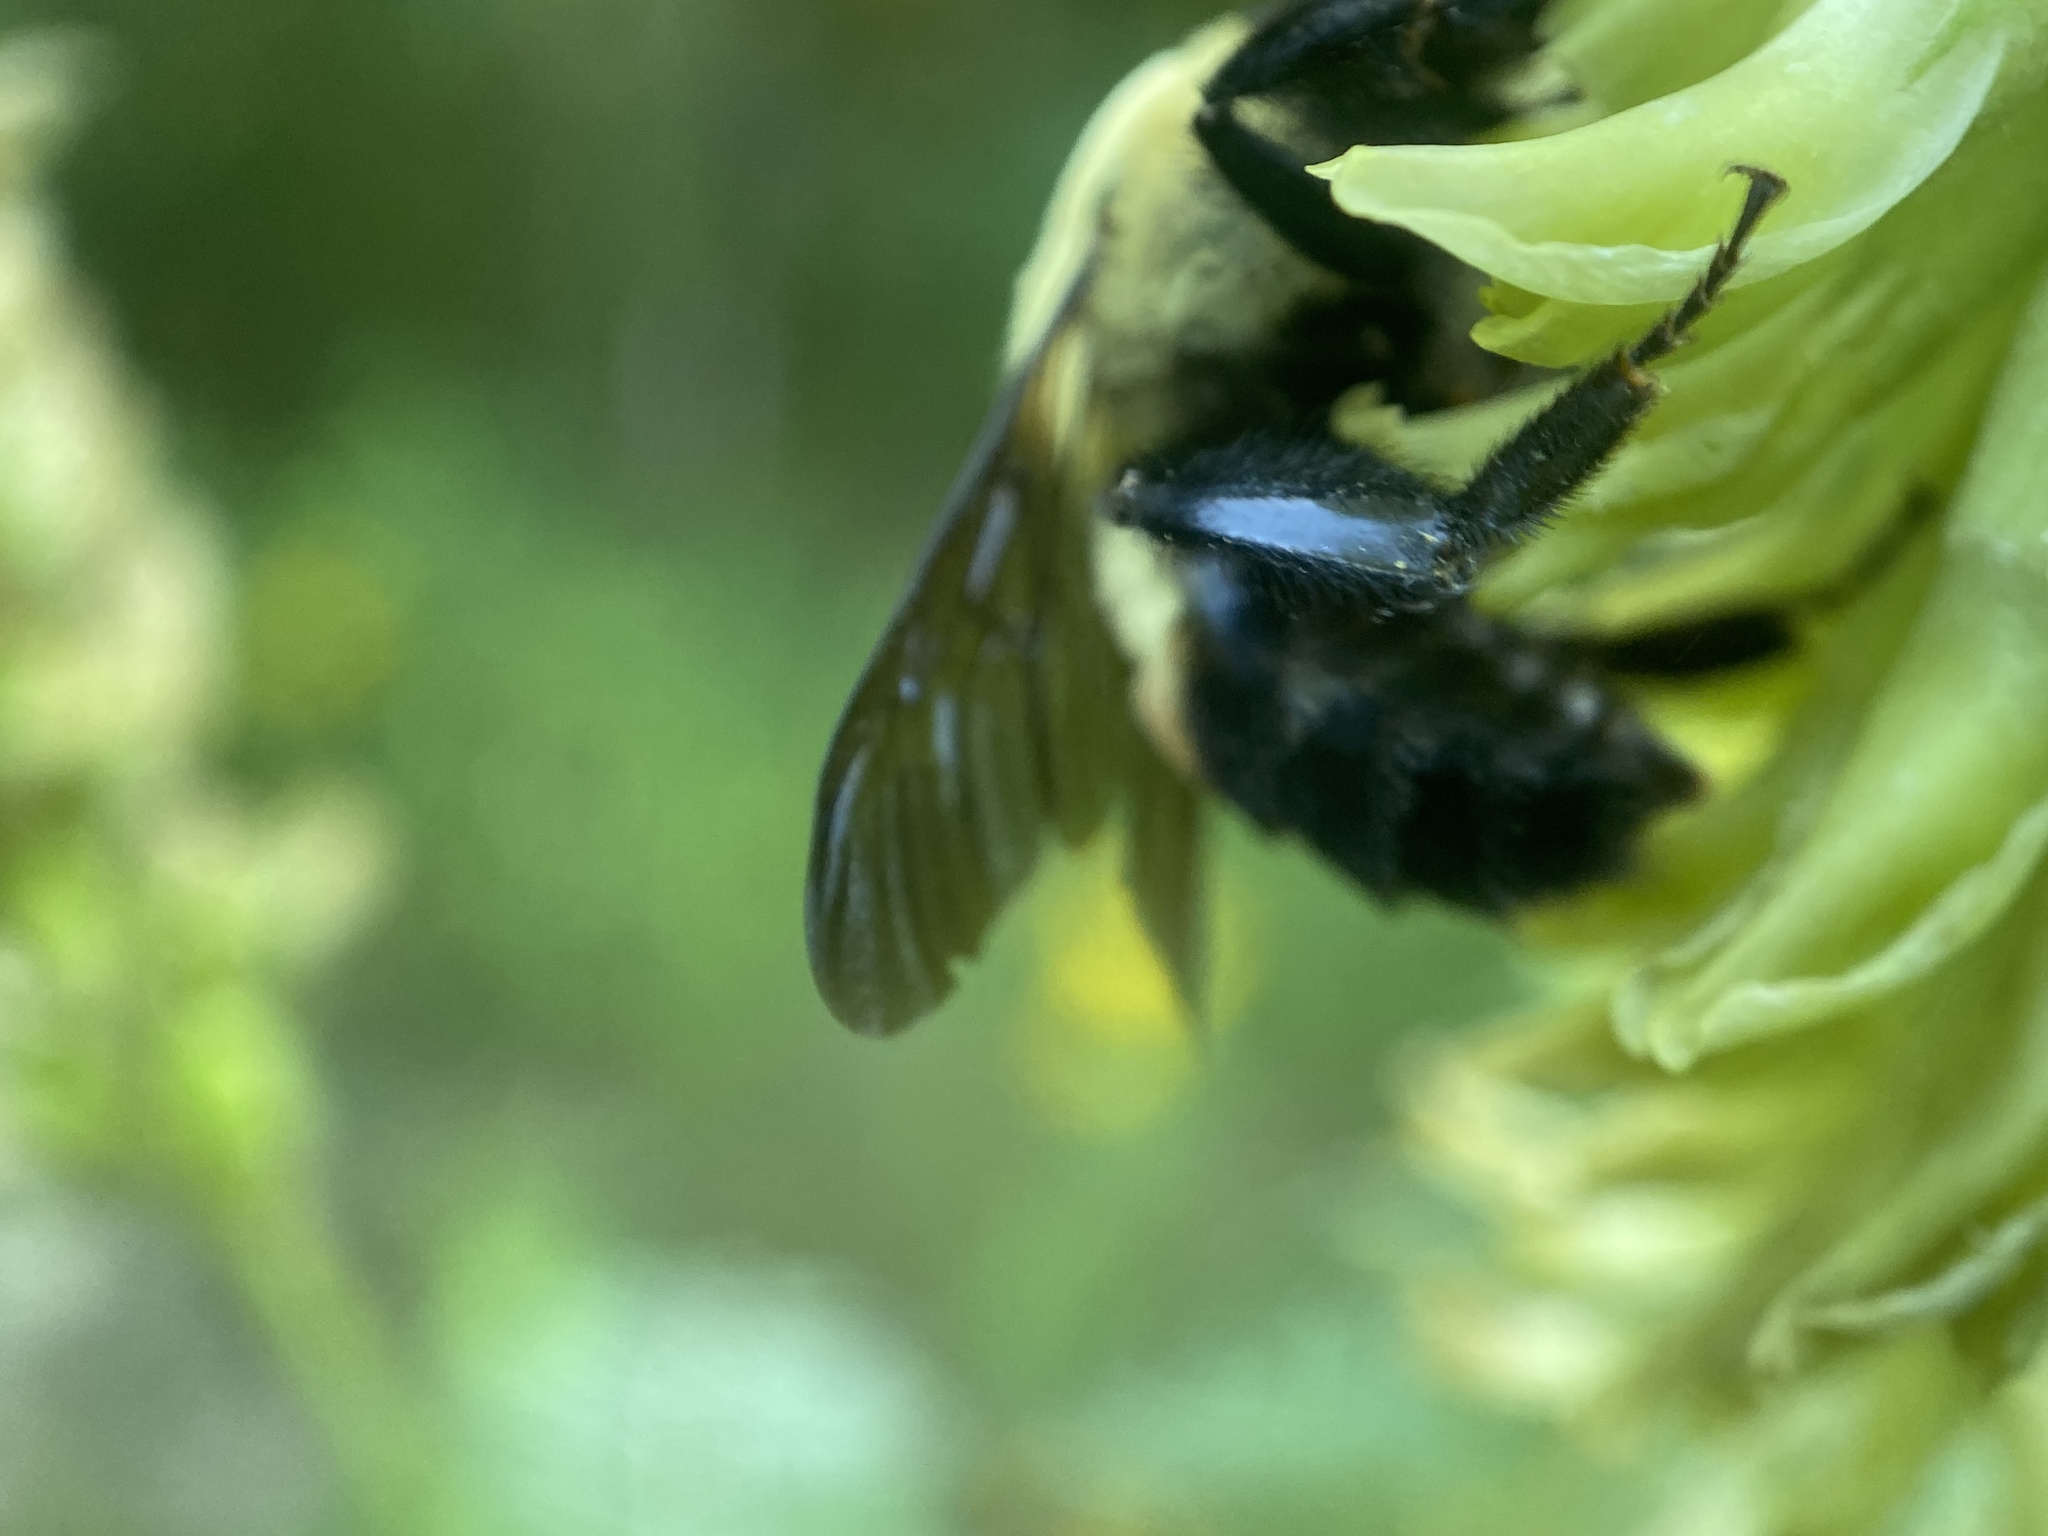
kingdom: Animalia
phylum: Arthropoda
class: Insecta
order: Hymenoptera
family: Apidae
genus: Bombus
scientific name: Bombus griseocollis
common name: Brown-belted bumble bee
